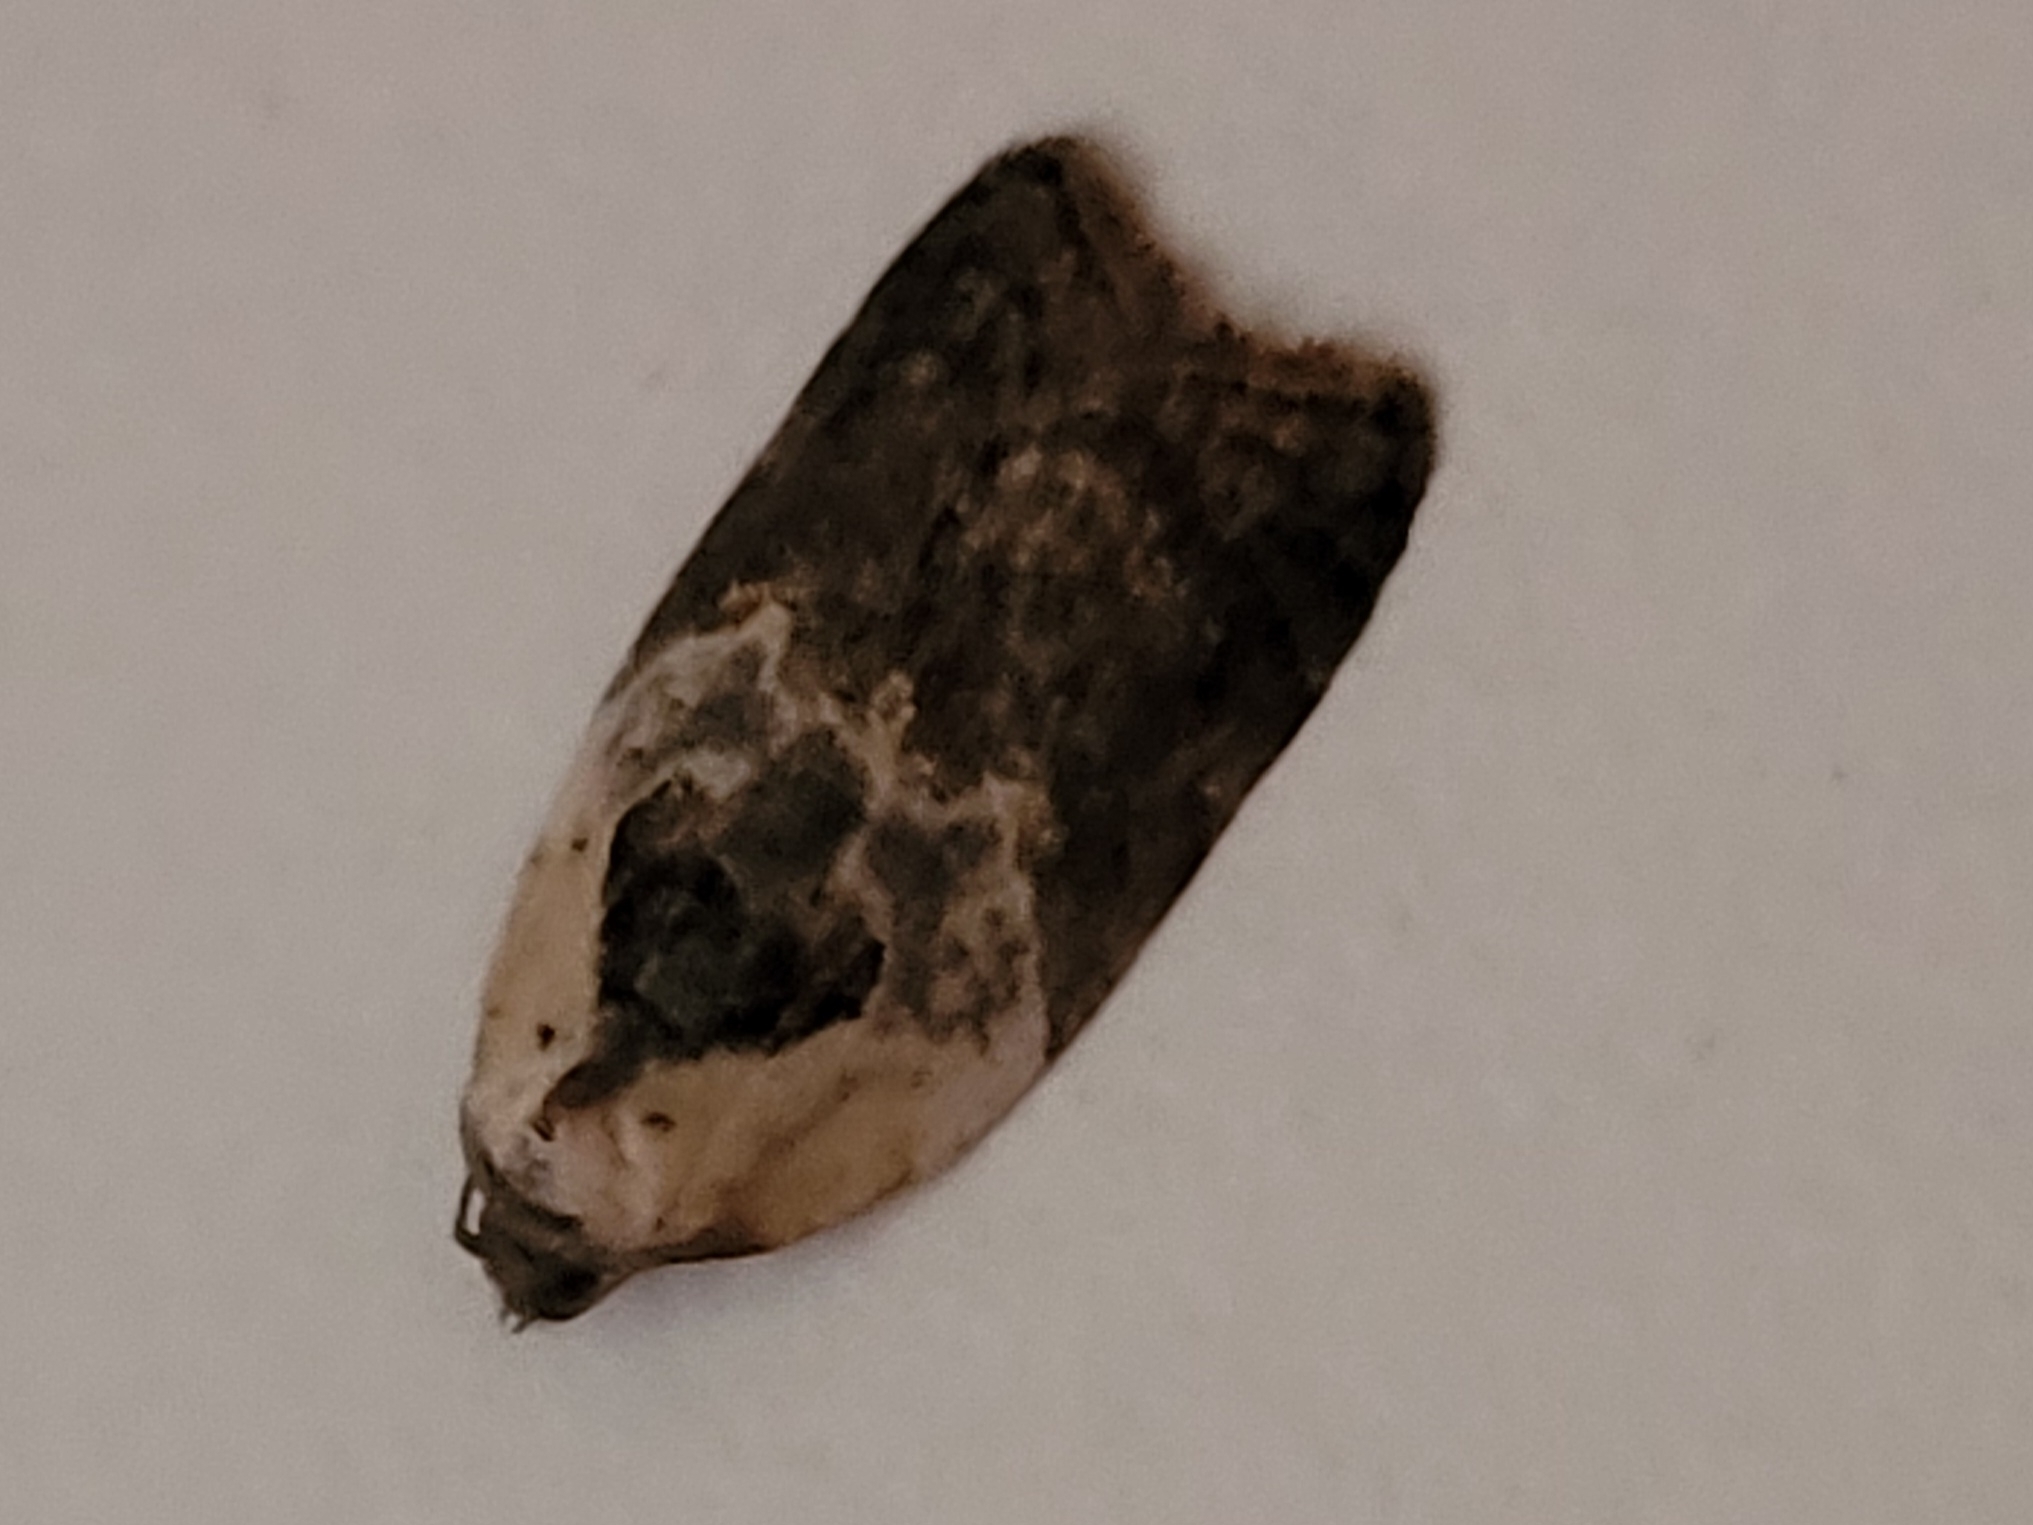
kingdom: Animalia
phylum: Arthropoda
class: Insecta
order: Lepidoptera
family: Tortricidae
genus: Acleris
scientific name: Acleris variegana
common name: Garden rose tortrix
